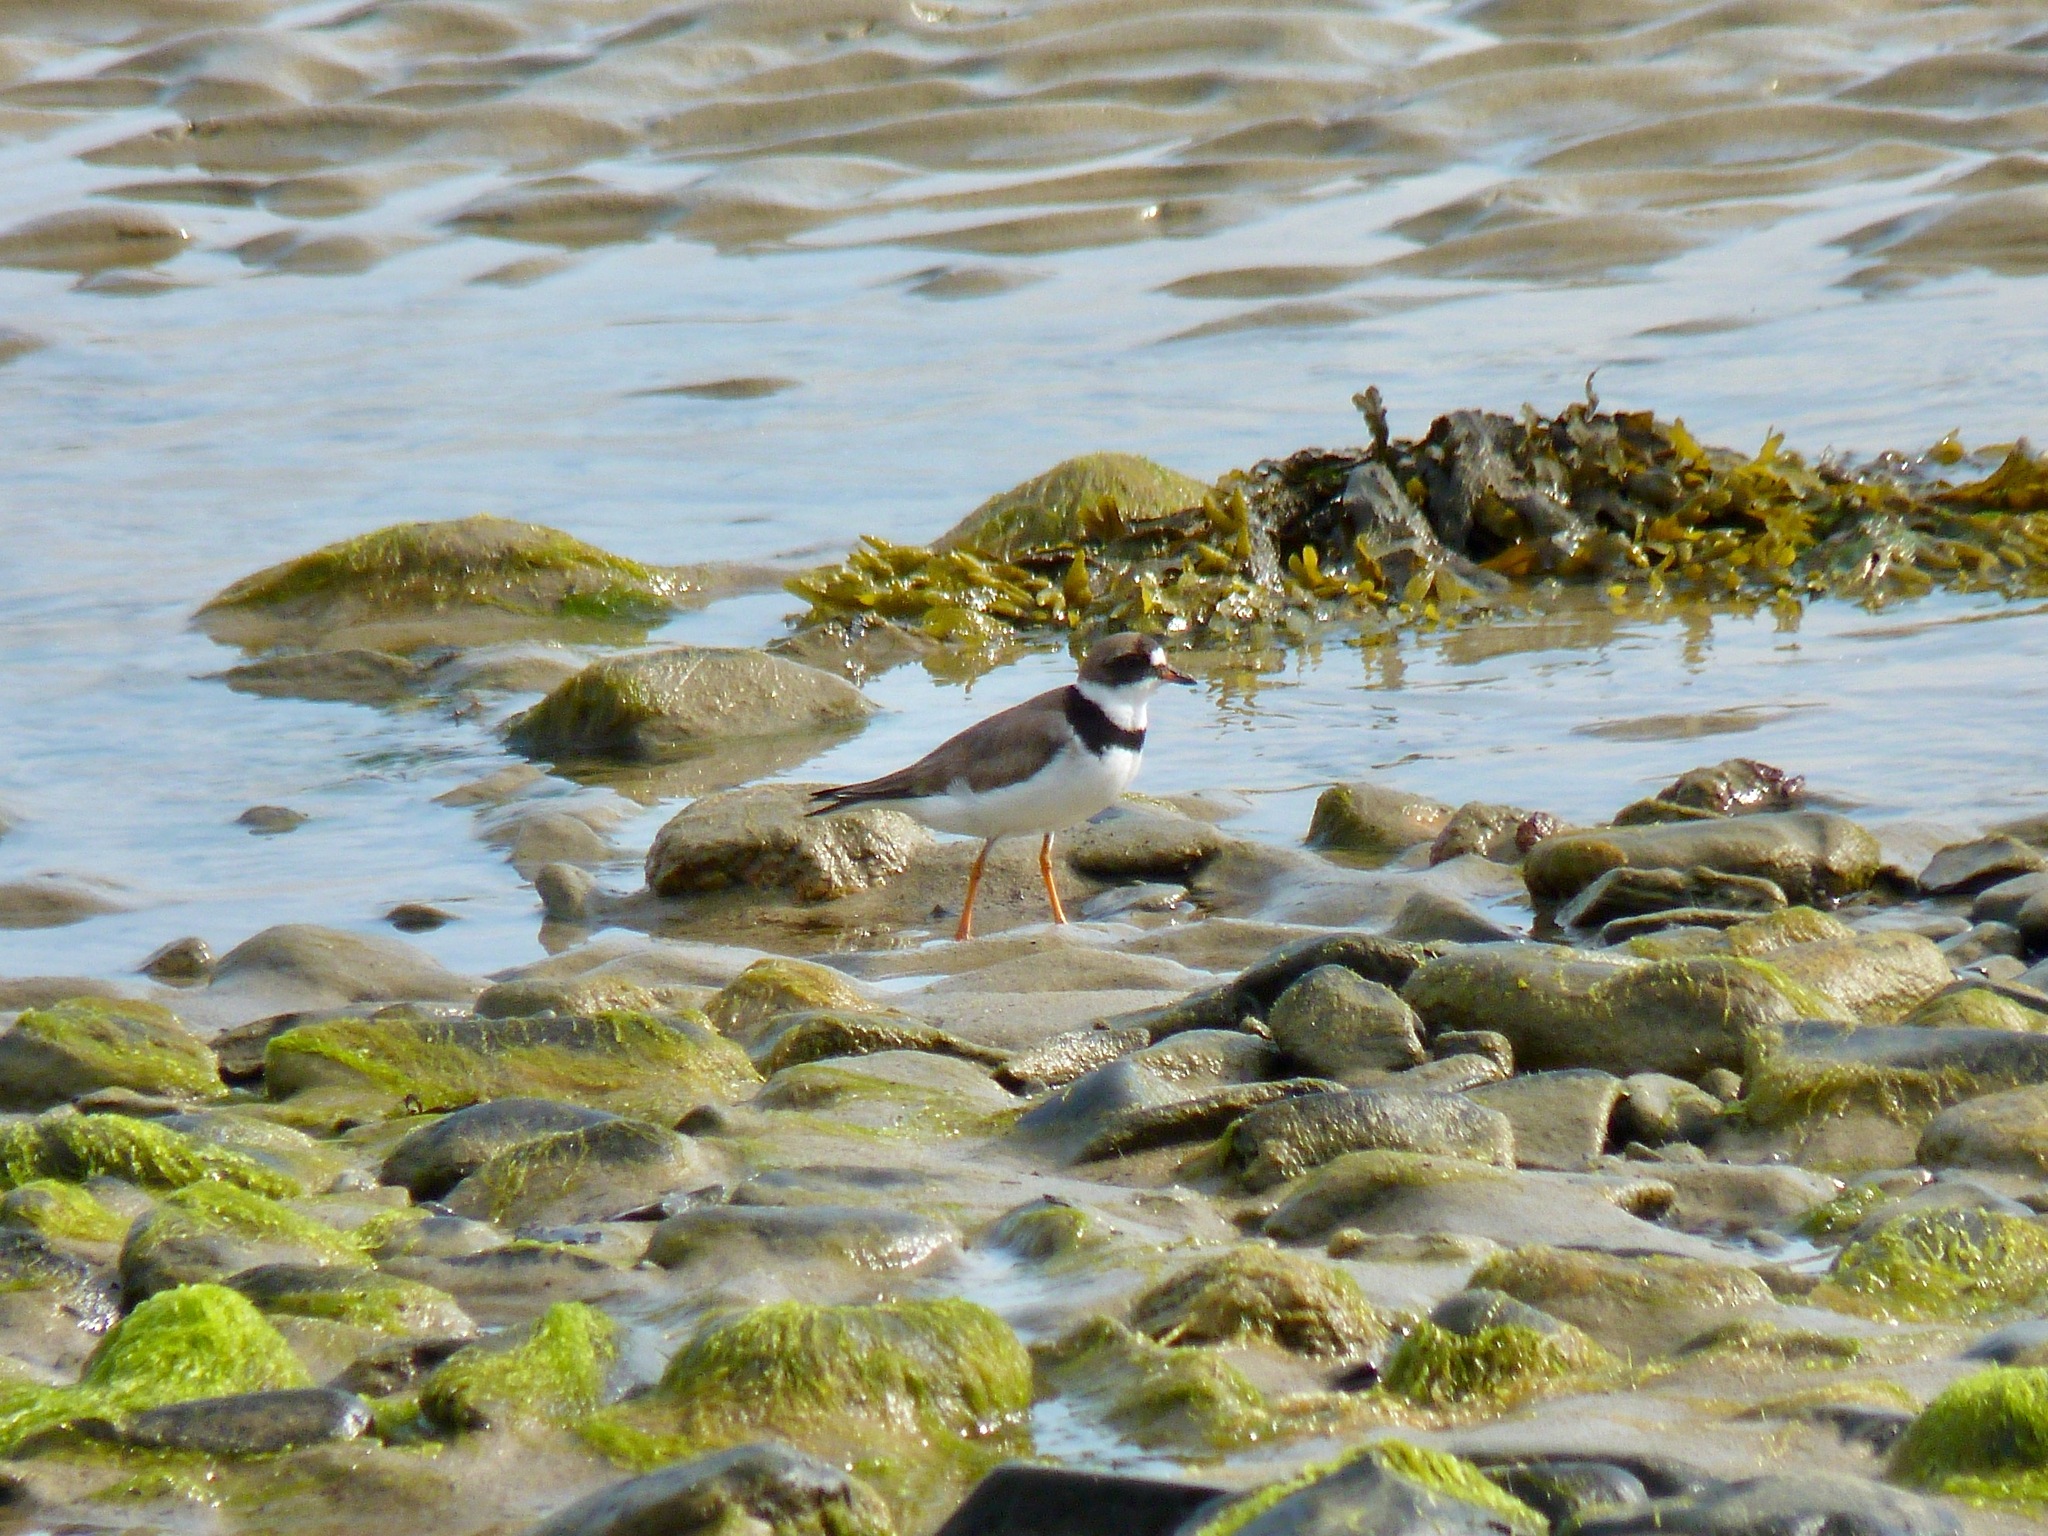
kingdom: Animalia
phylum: Chordata
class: Aves
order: Charadriiformes
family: Charadriidae
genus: Charadrius
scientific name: Charadrius semipalmatus
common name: Semipalmated plover
